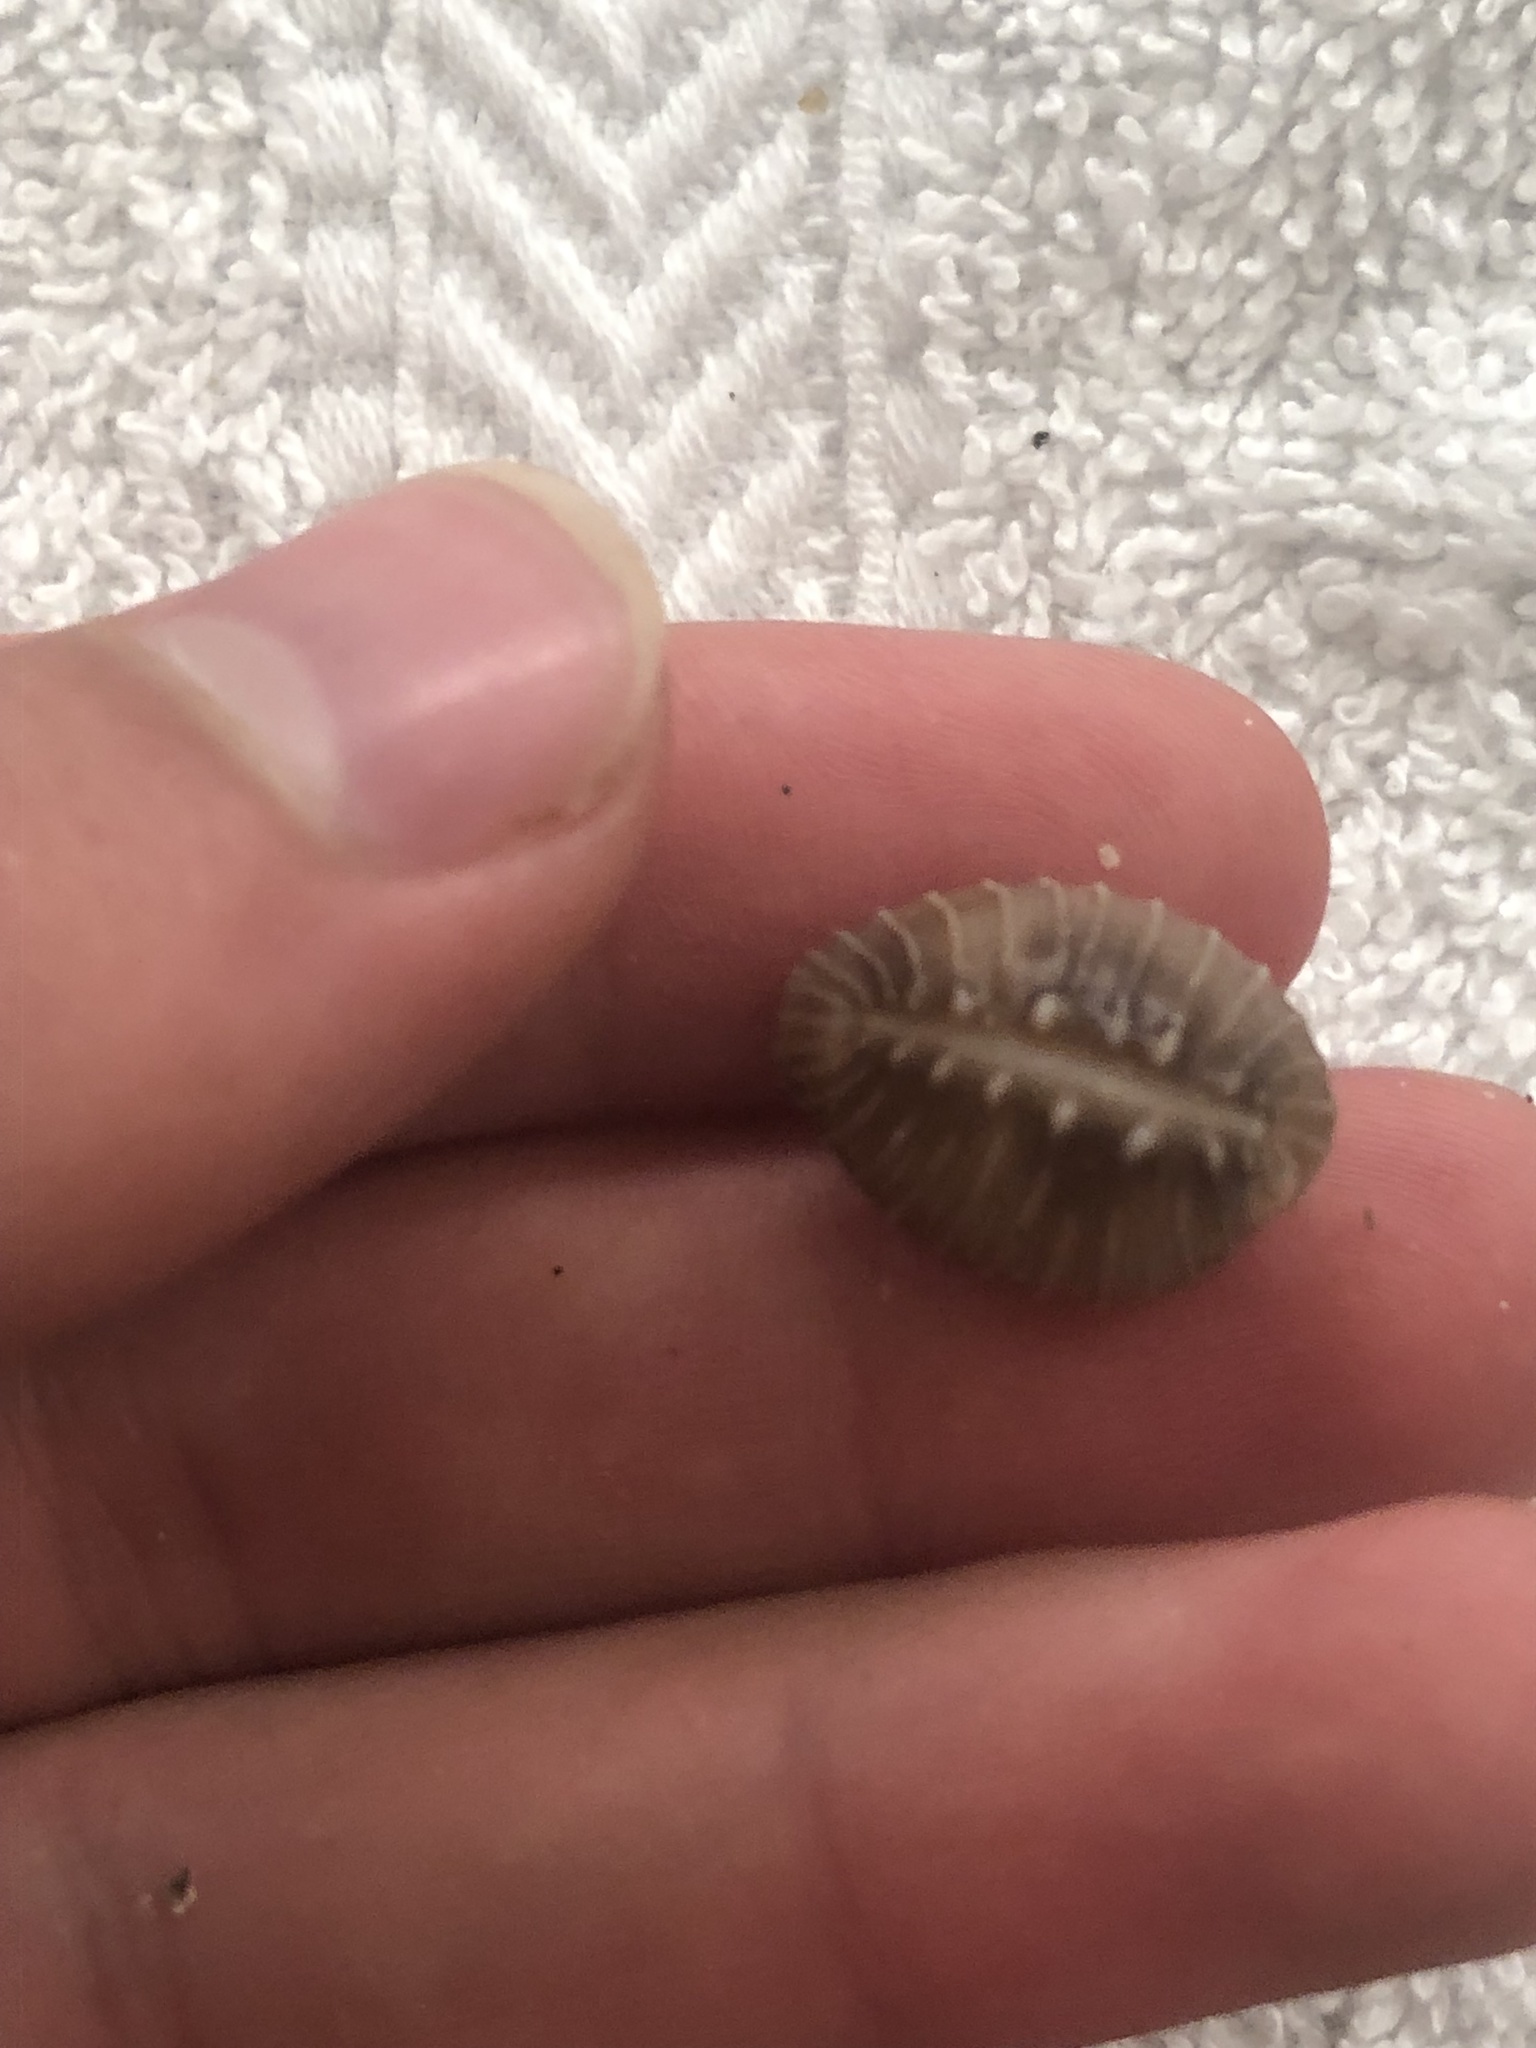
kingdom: Animalia
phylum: Mollusca
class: Gastropoda
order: Littorinimorpha
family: Triviidae
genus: Pusula
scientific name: Pusula solandri
